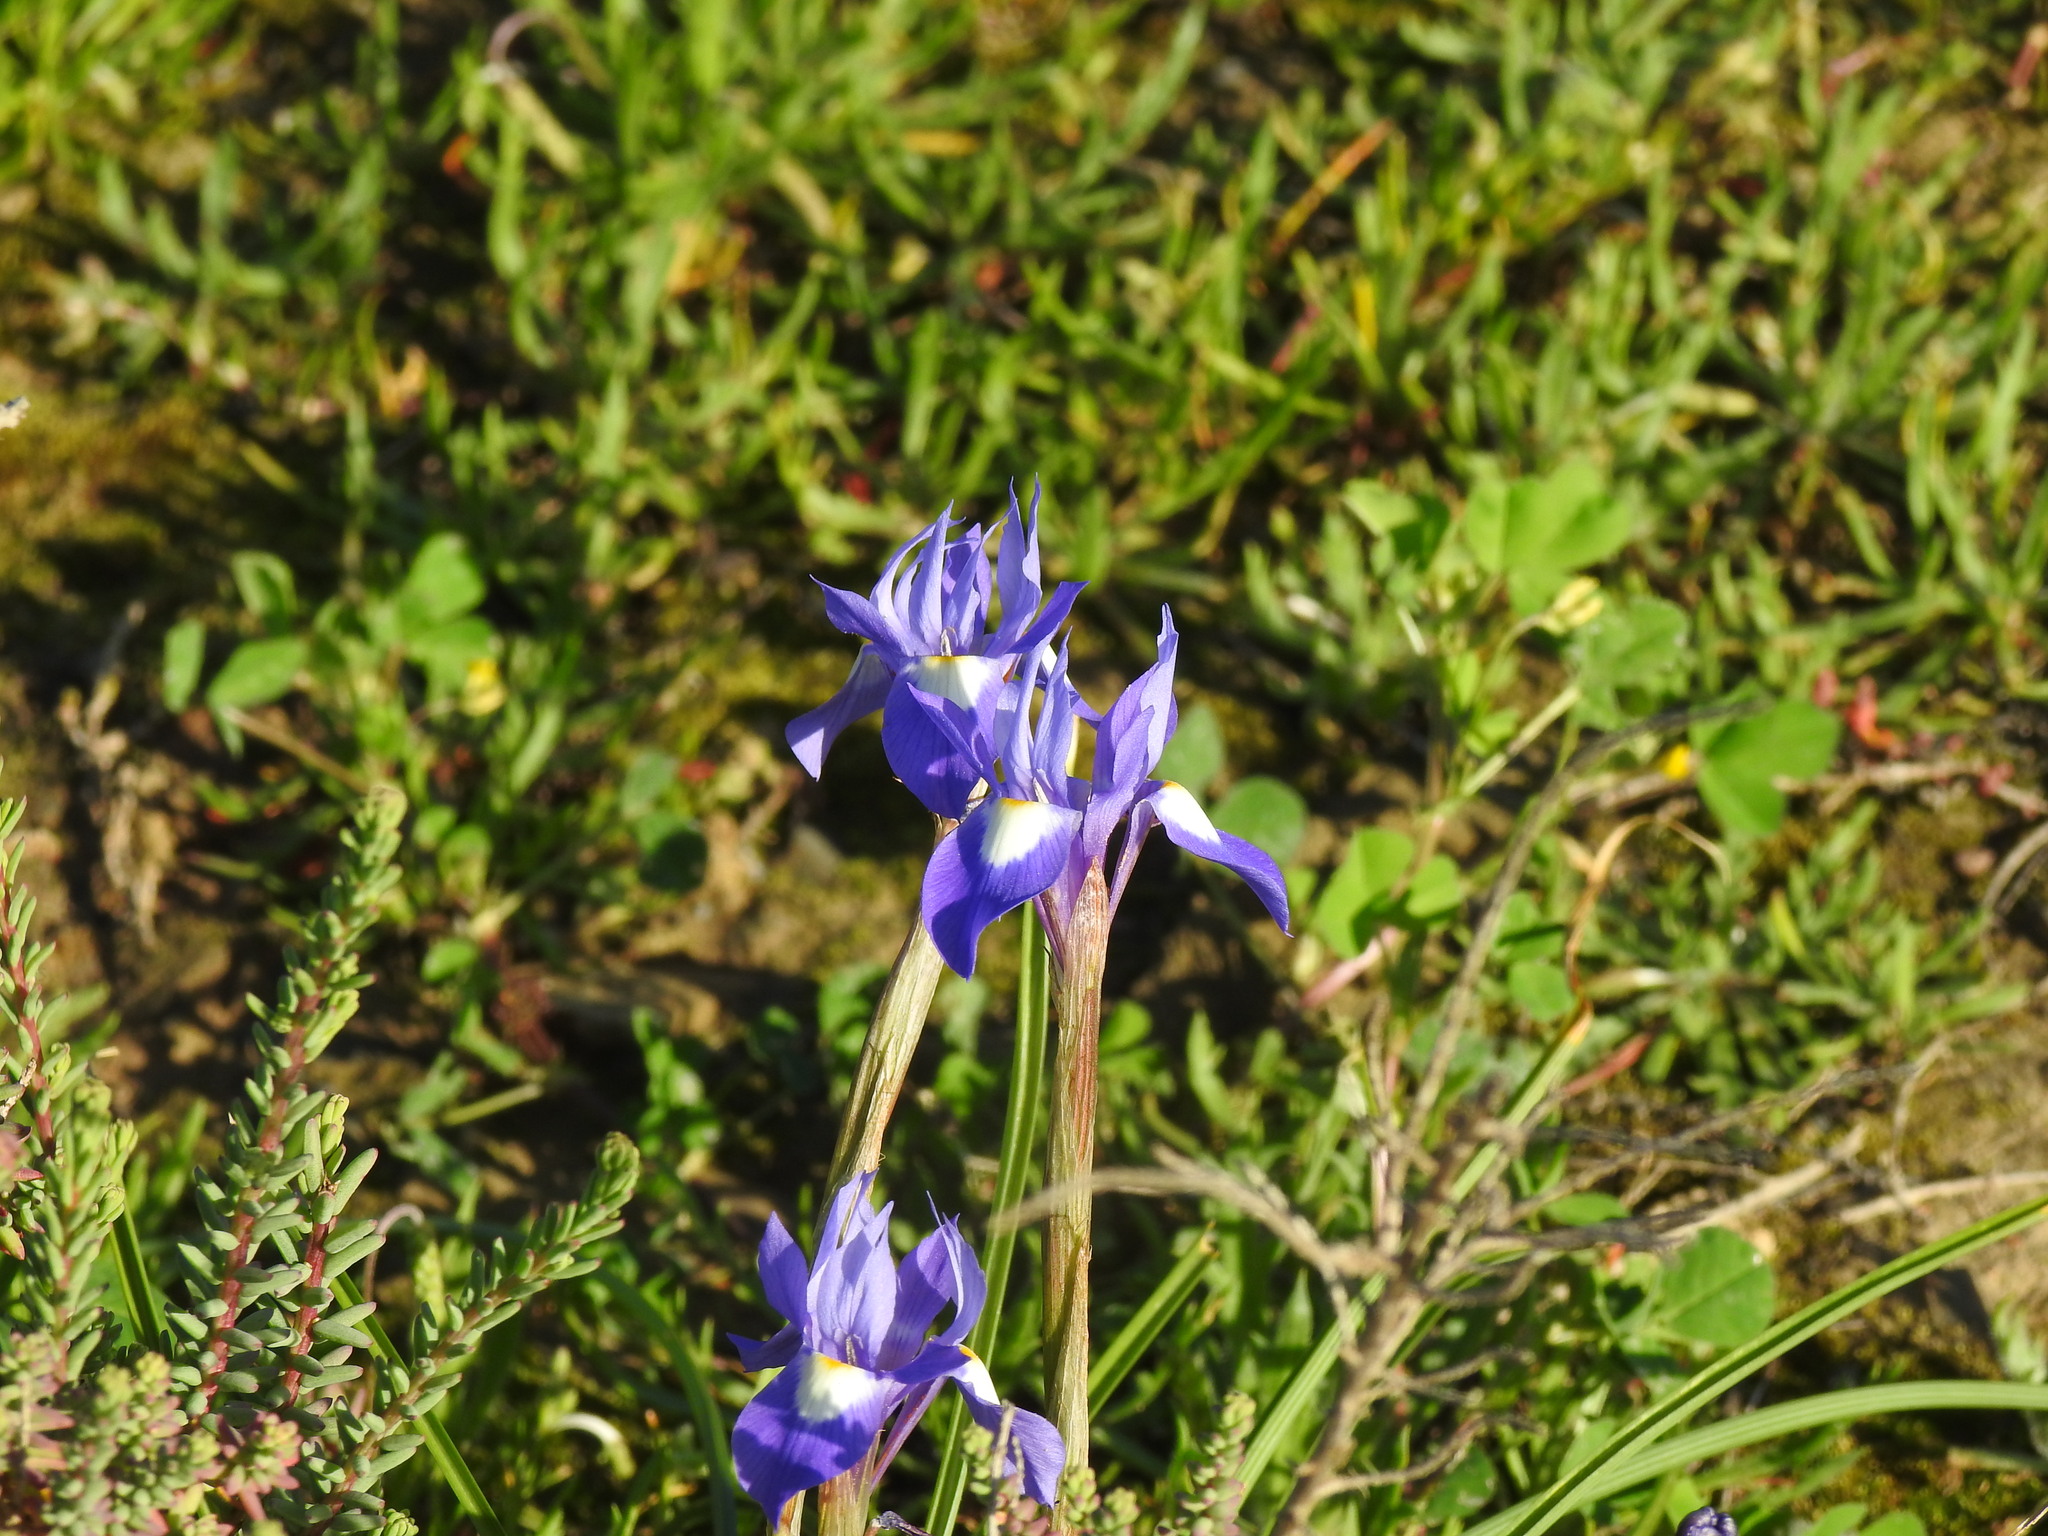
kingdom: Plantae
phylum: Tracheophyta
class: Liliopsida
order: Asparagales
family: Iridaceae
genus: Moraea
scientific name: Moraea sisyrinchium
